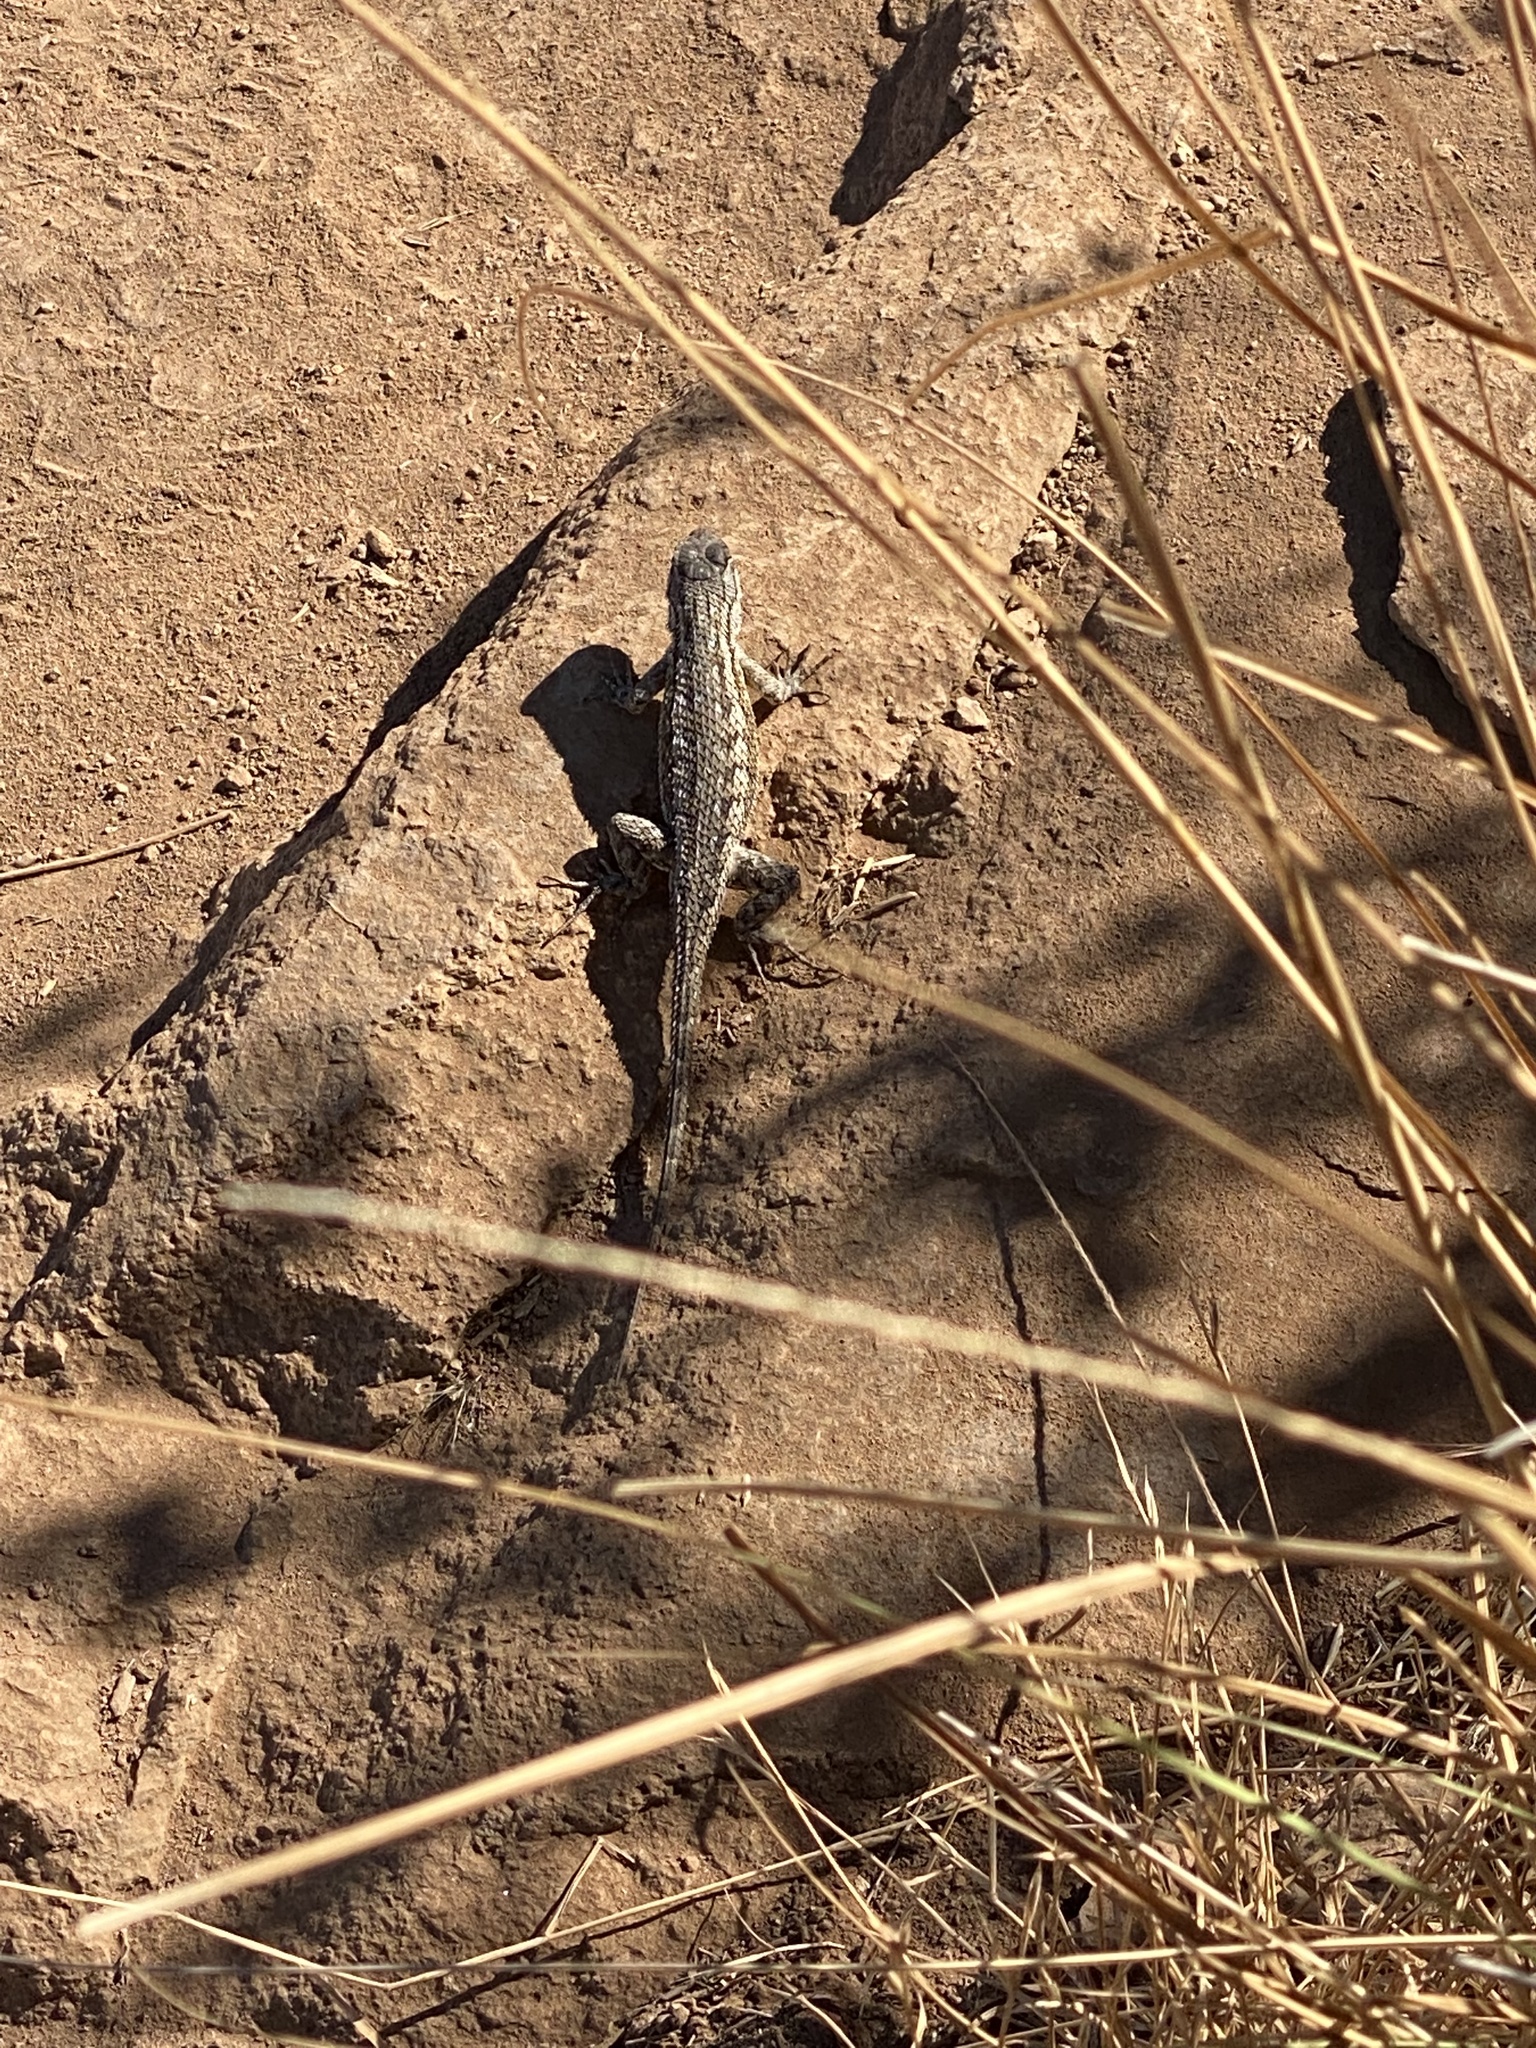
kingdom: Animalia
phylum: Chordata
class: Squamata
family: Phrynosomatidae
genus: Sceloporus
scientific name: Sceloporus occidentalis
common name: Western fence lizard
